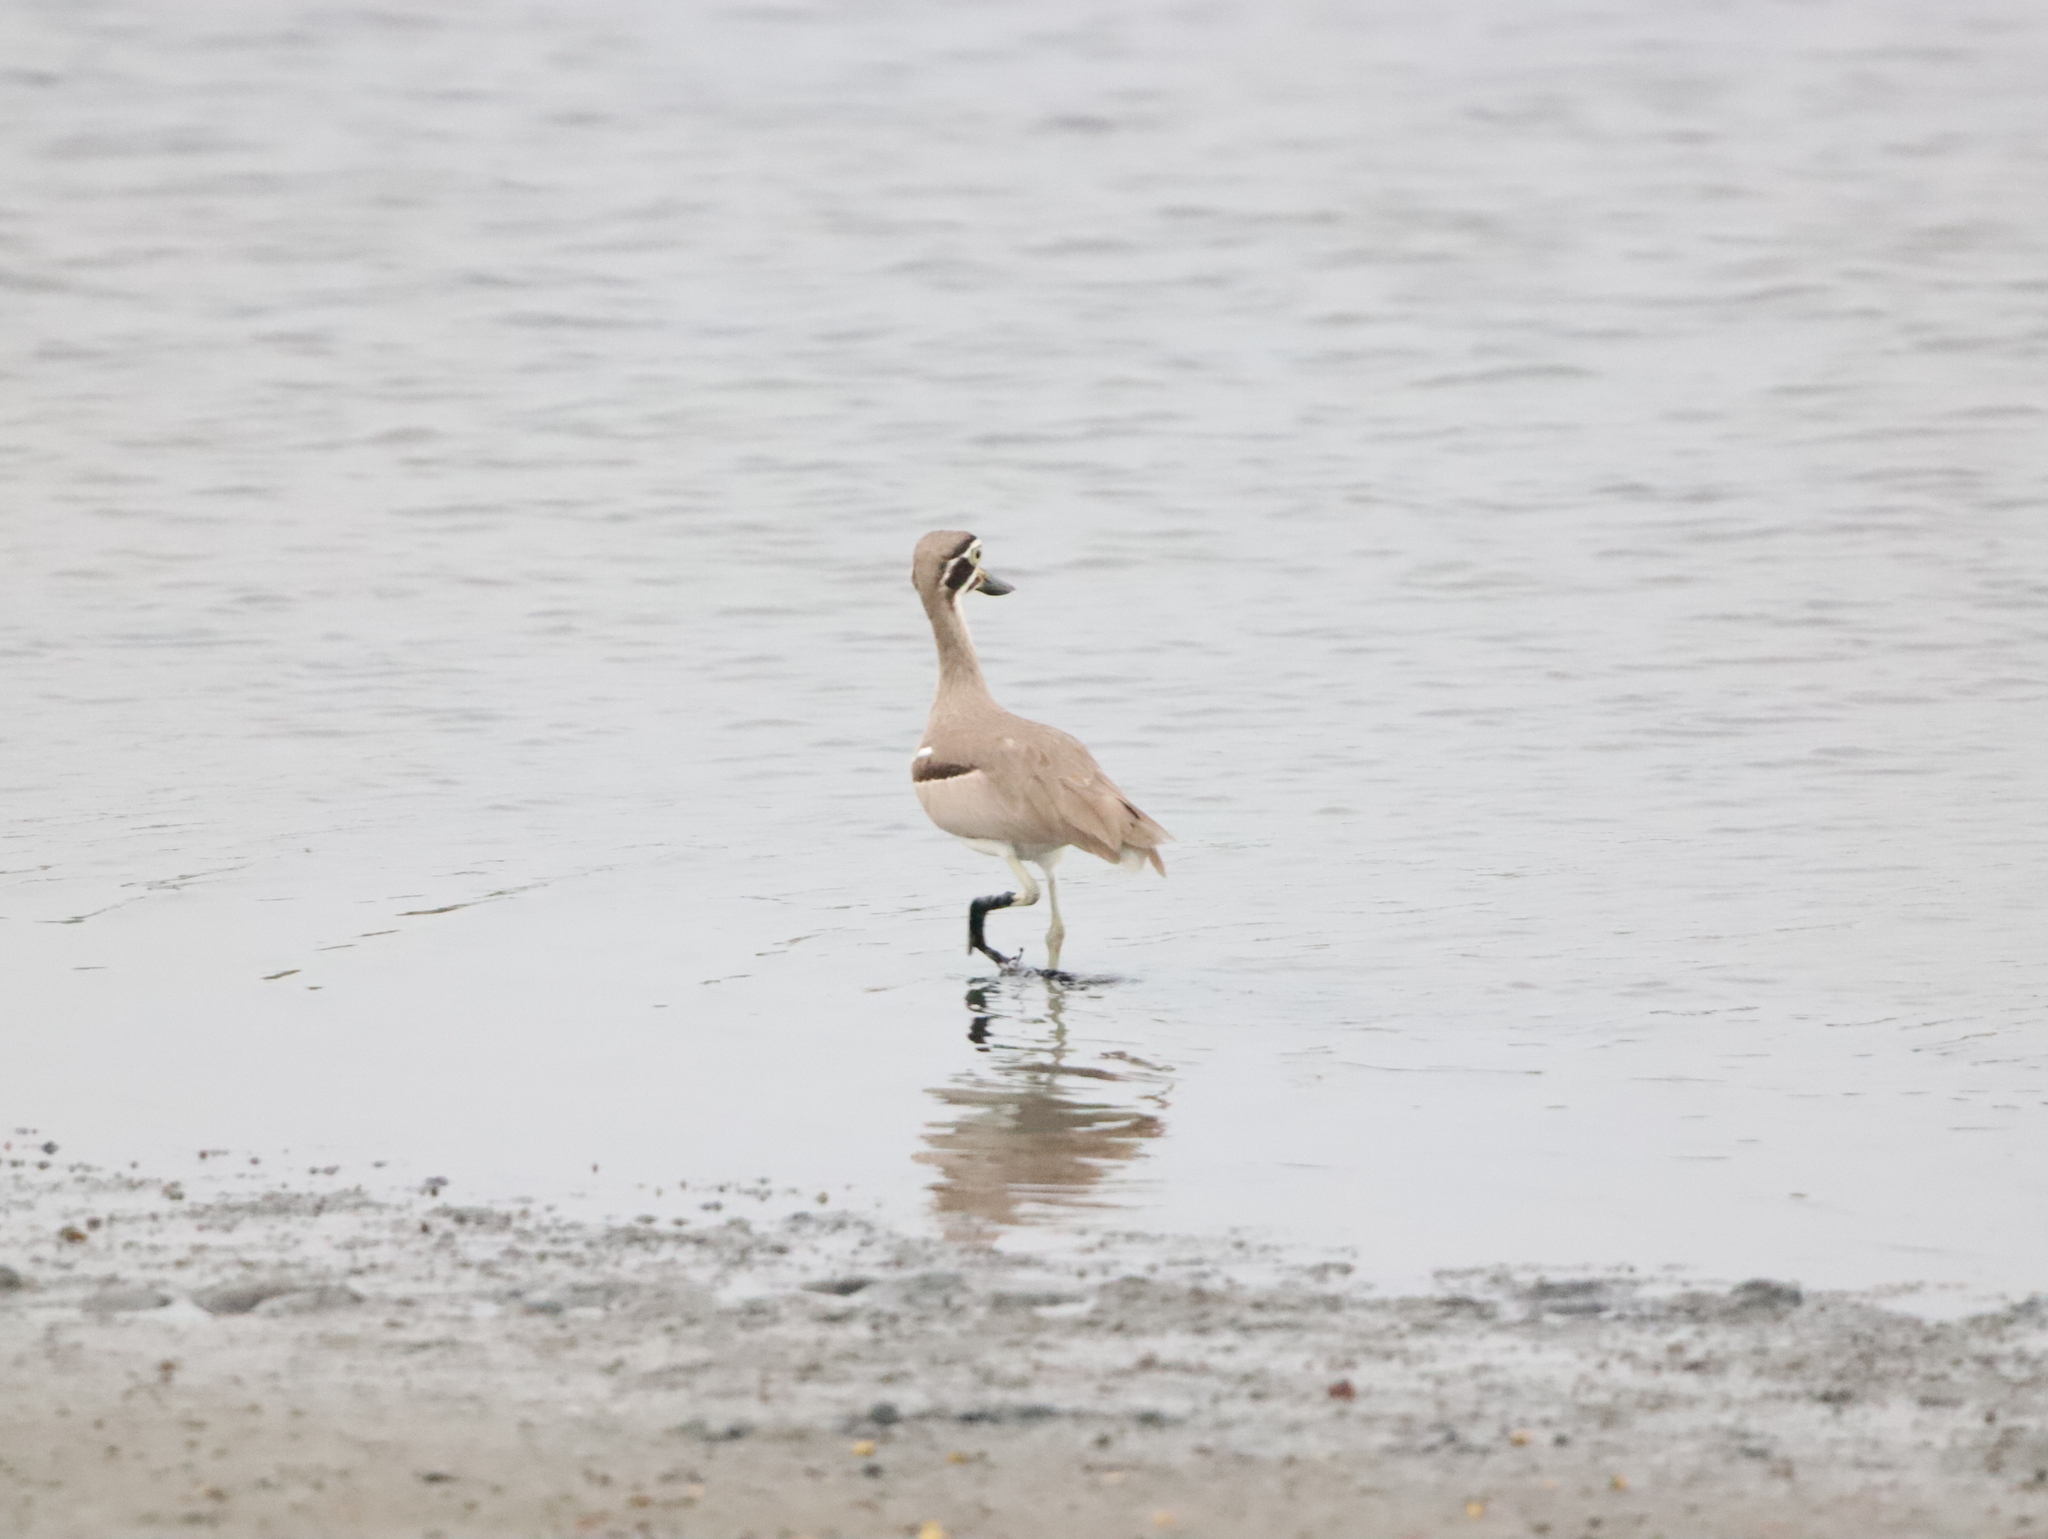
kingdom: Animalia
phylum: Chordata
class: Aves
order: Charadriiformes
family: Burhinidae
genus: Esacus
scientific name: Esacus recurvirostris
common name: Great stone-curlew
